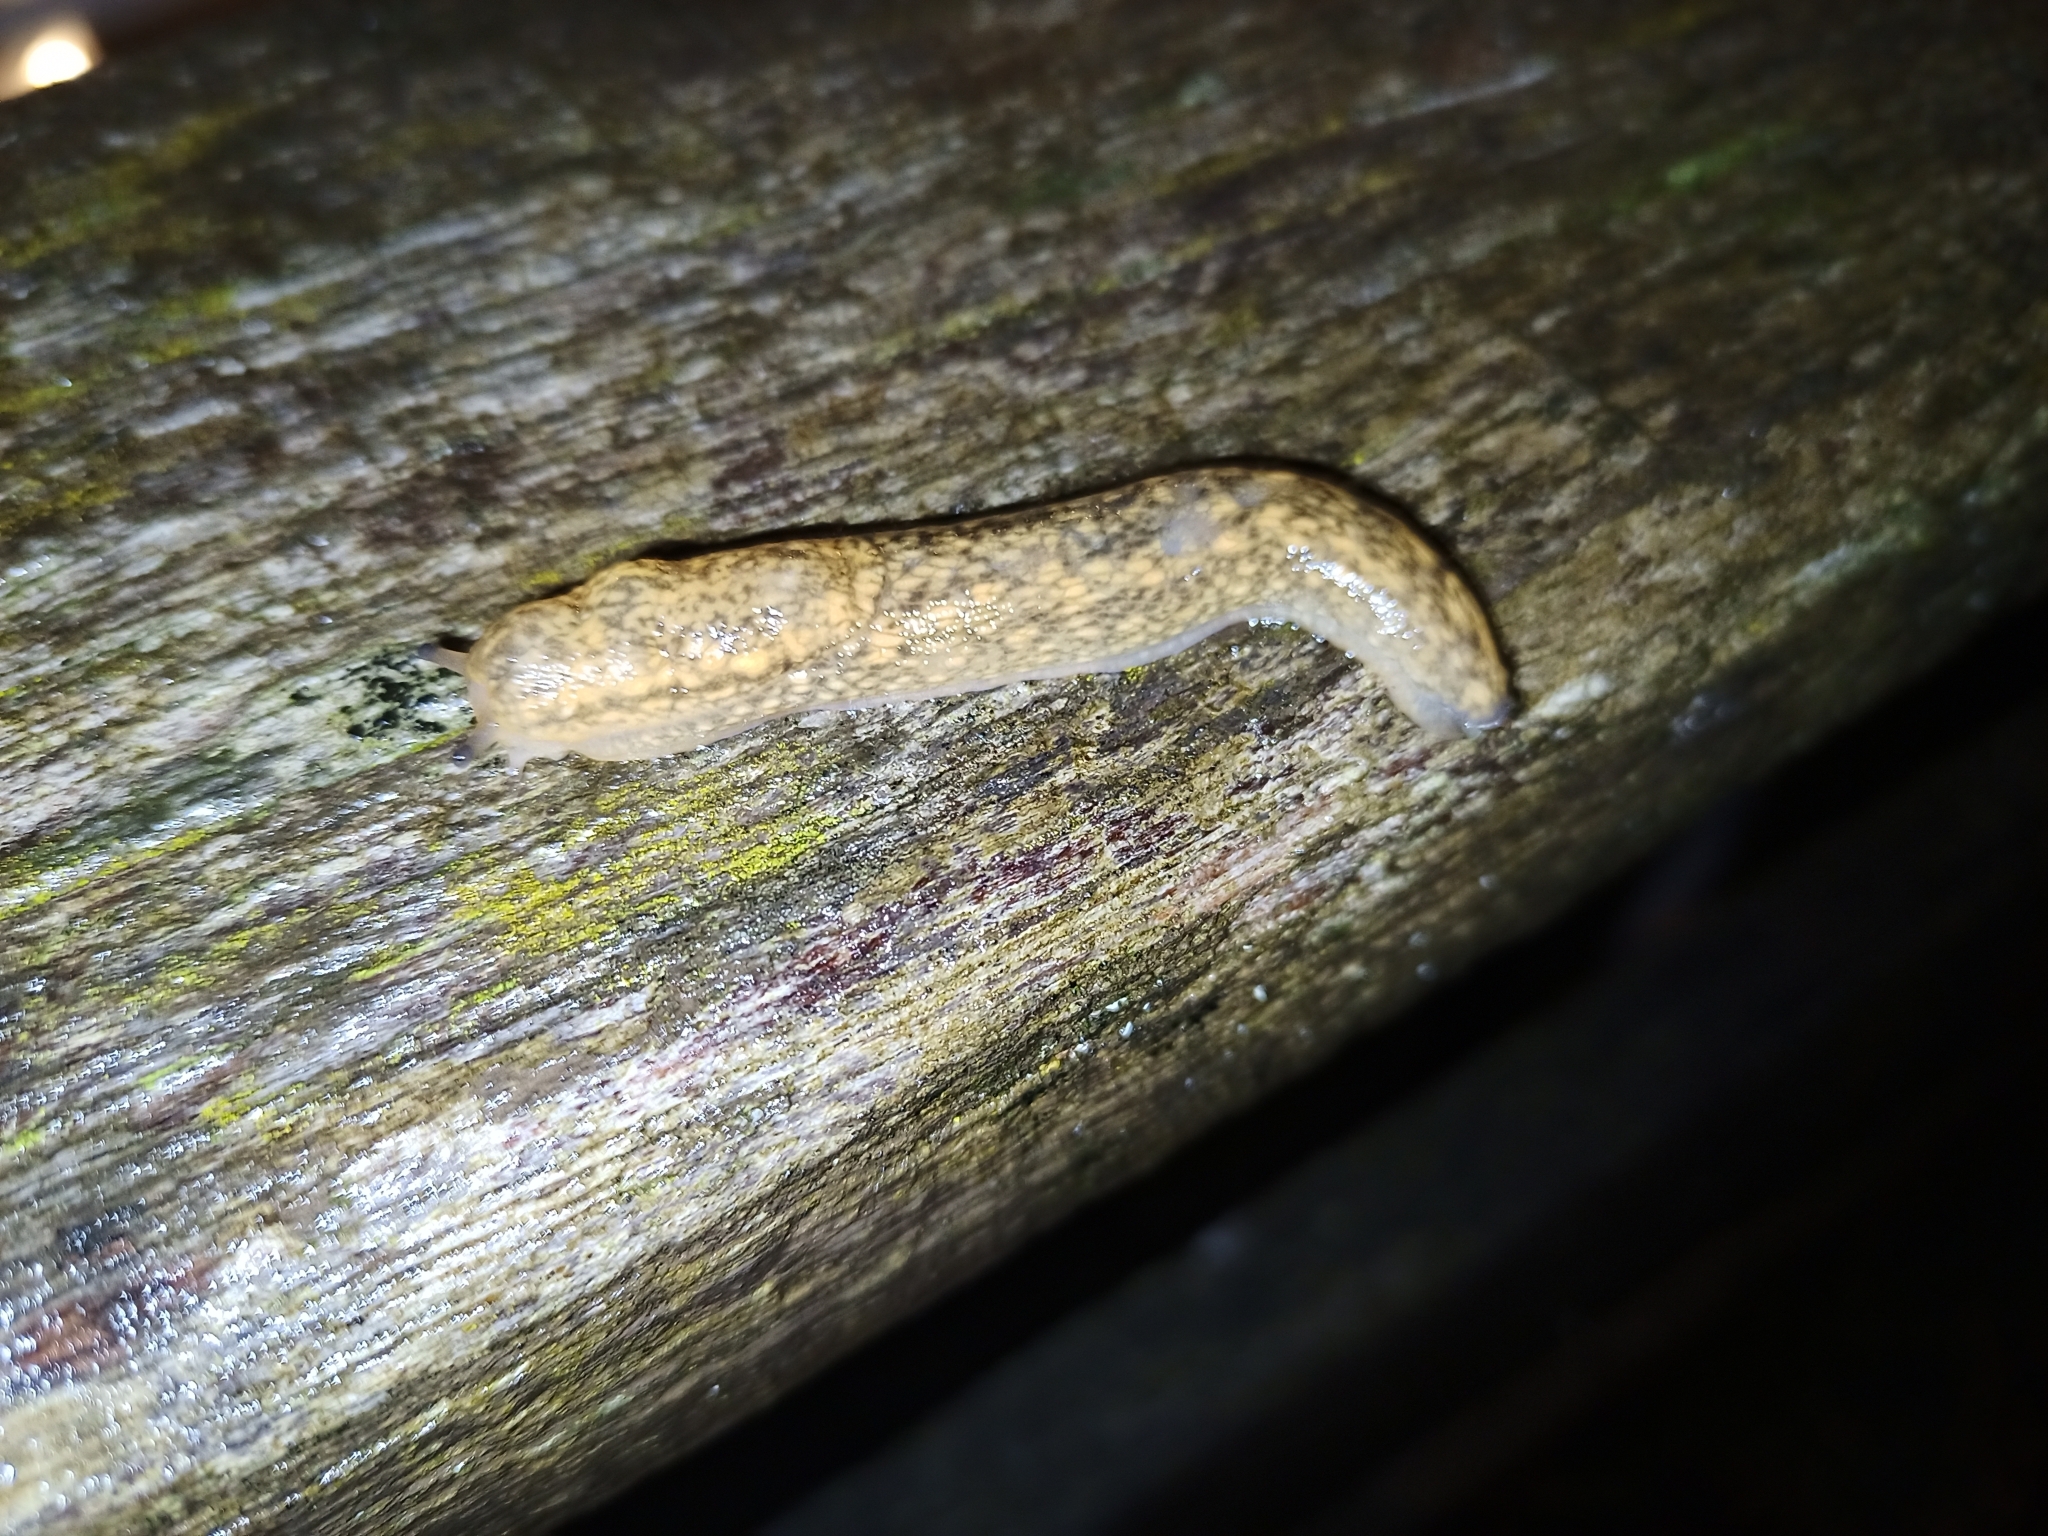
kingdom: Animalia
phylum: Mollusca
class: Gastropoda
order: Stylommatophora
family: Arionidae
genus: Geomalacus
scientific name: Geomalacus maculosus
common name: Kerry slug
